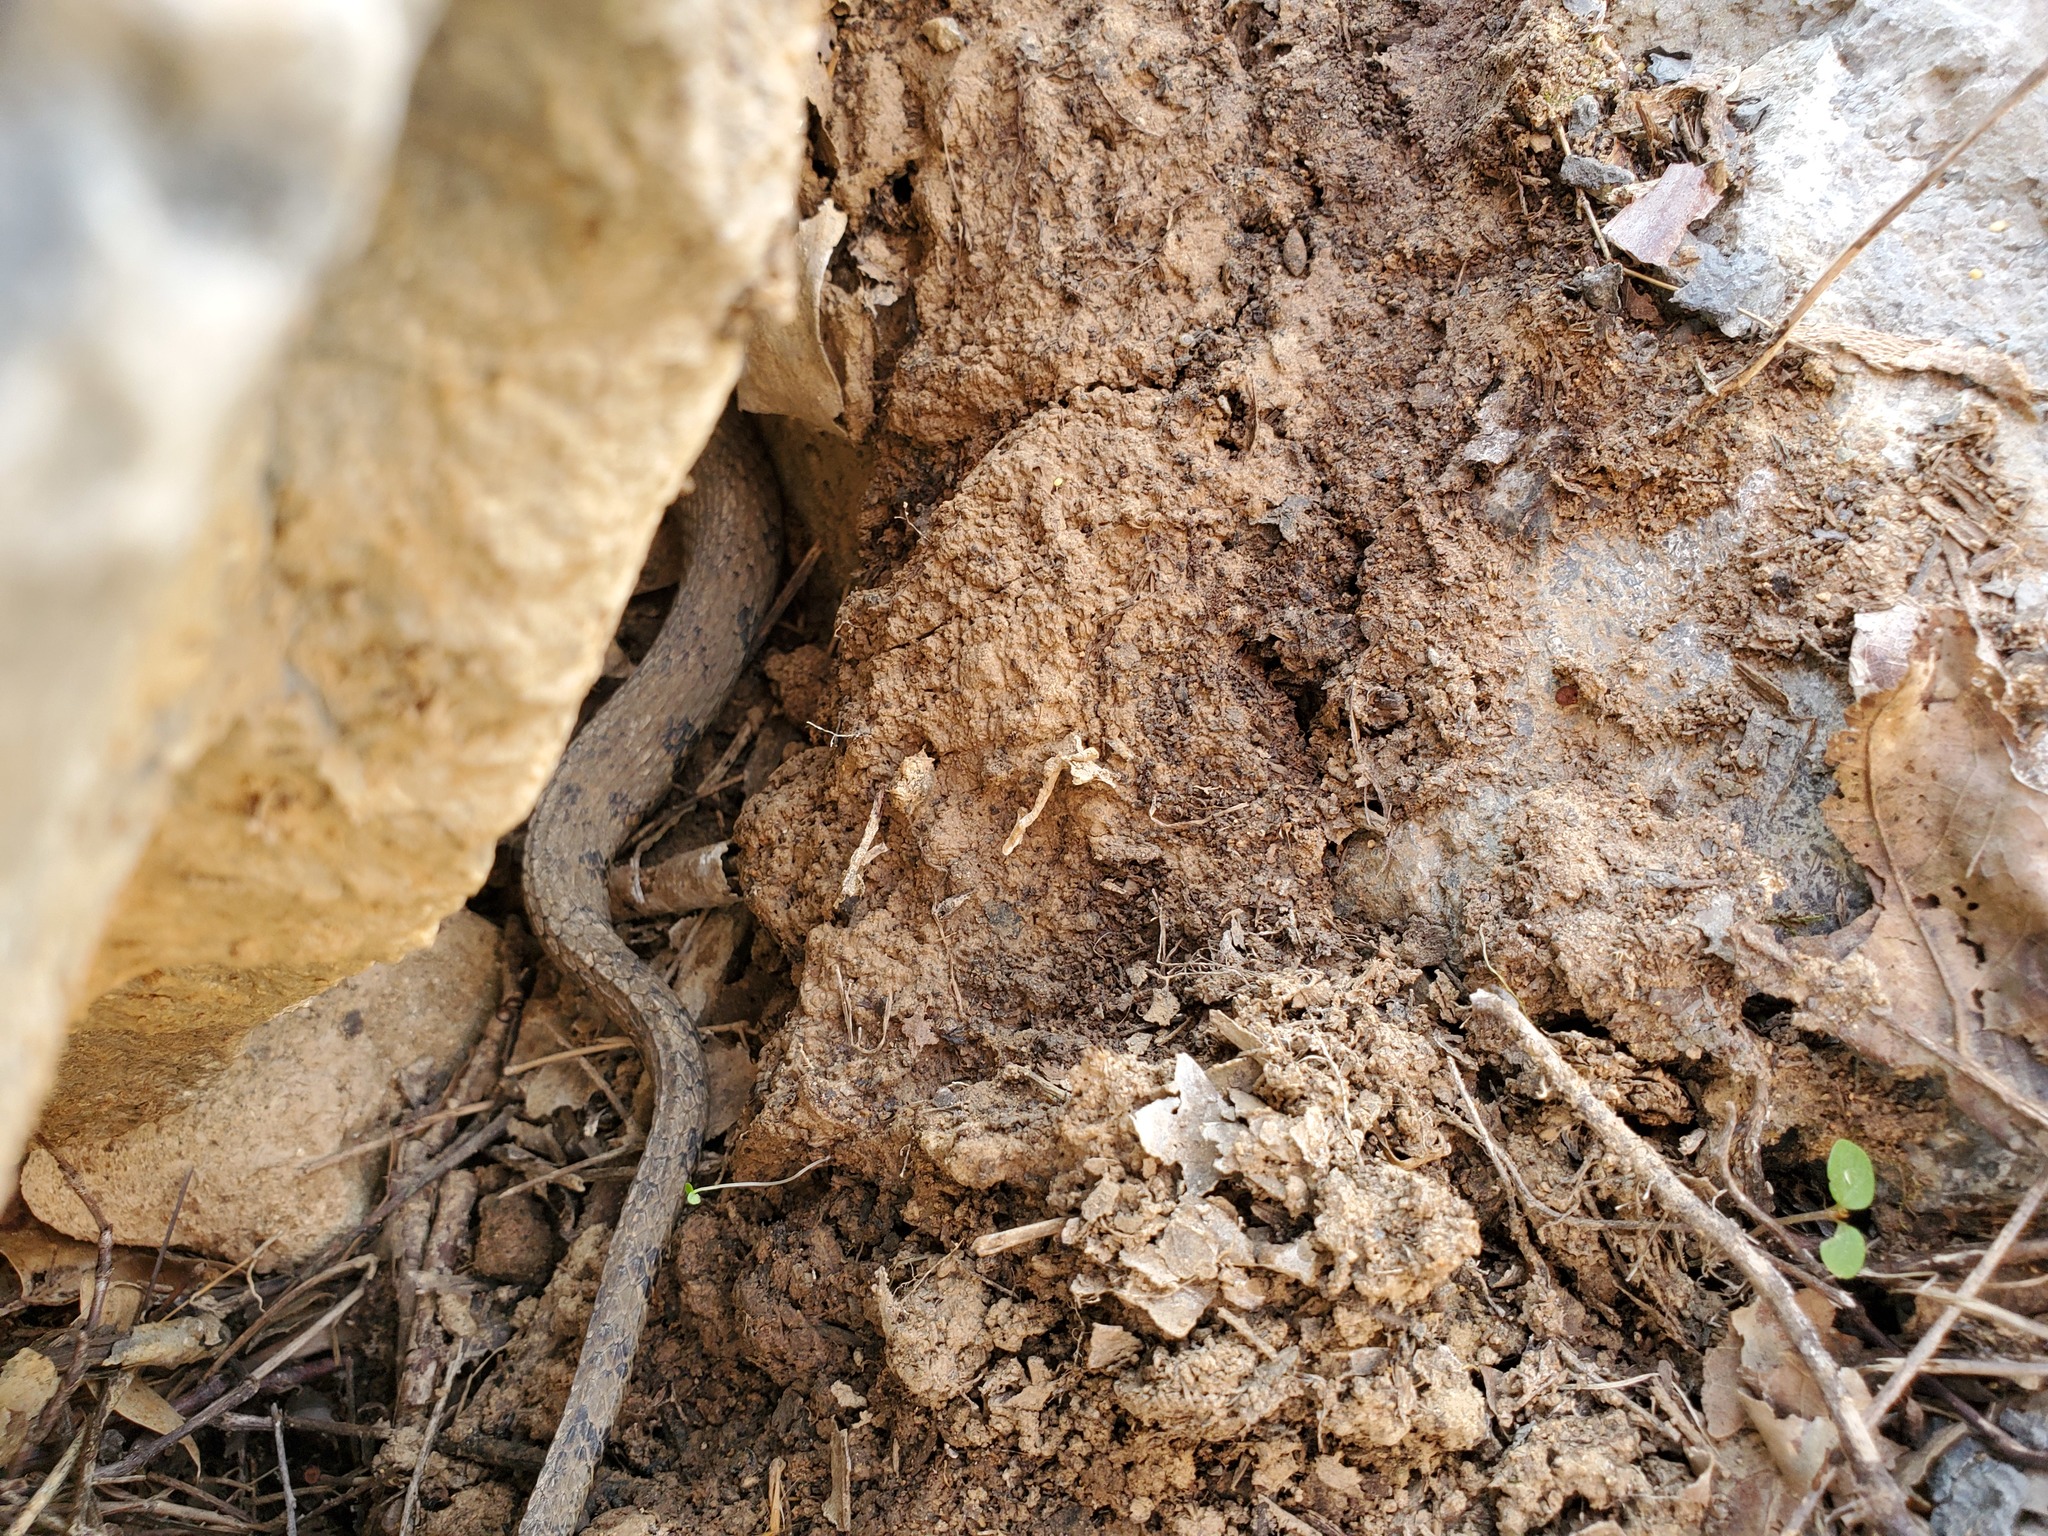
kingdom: Animalia
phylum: Chordata
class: Squamata
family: Colubridae
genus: Nerodia
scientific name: Nerodia sipedon
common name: Northern water snake
